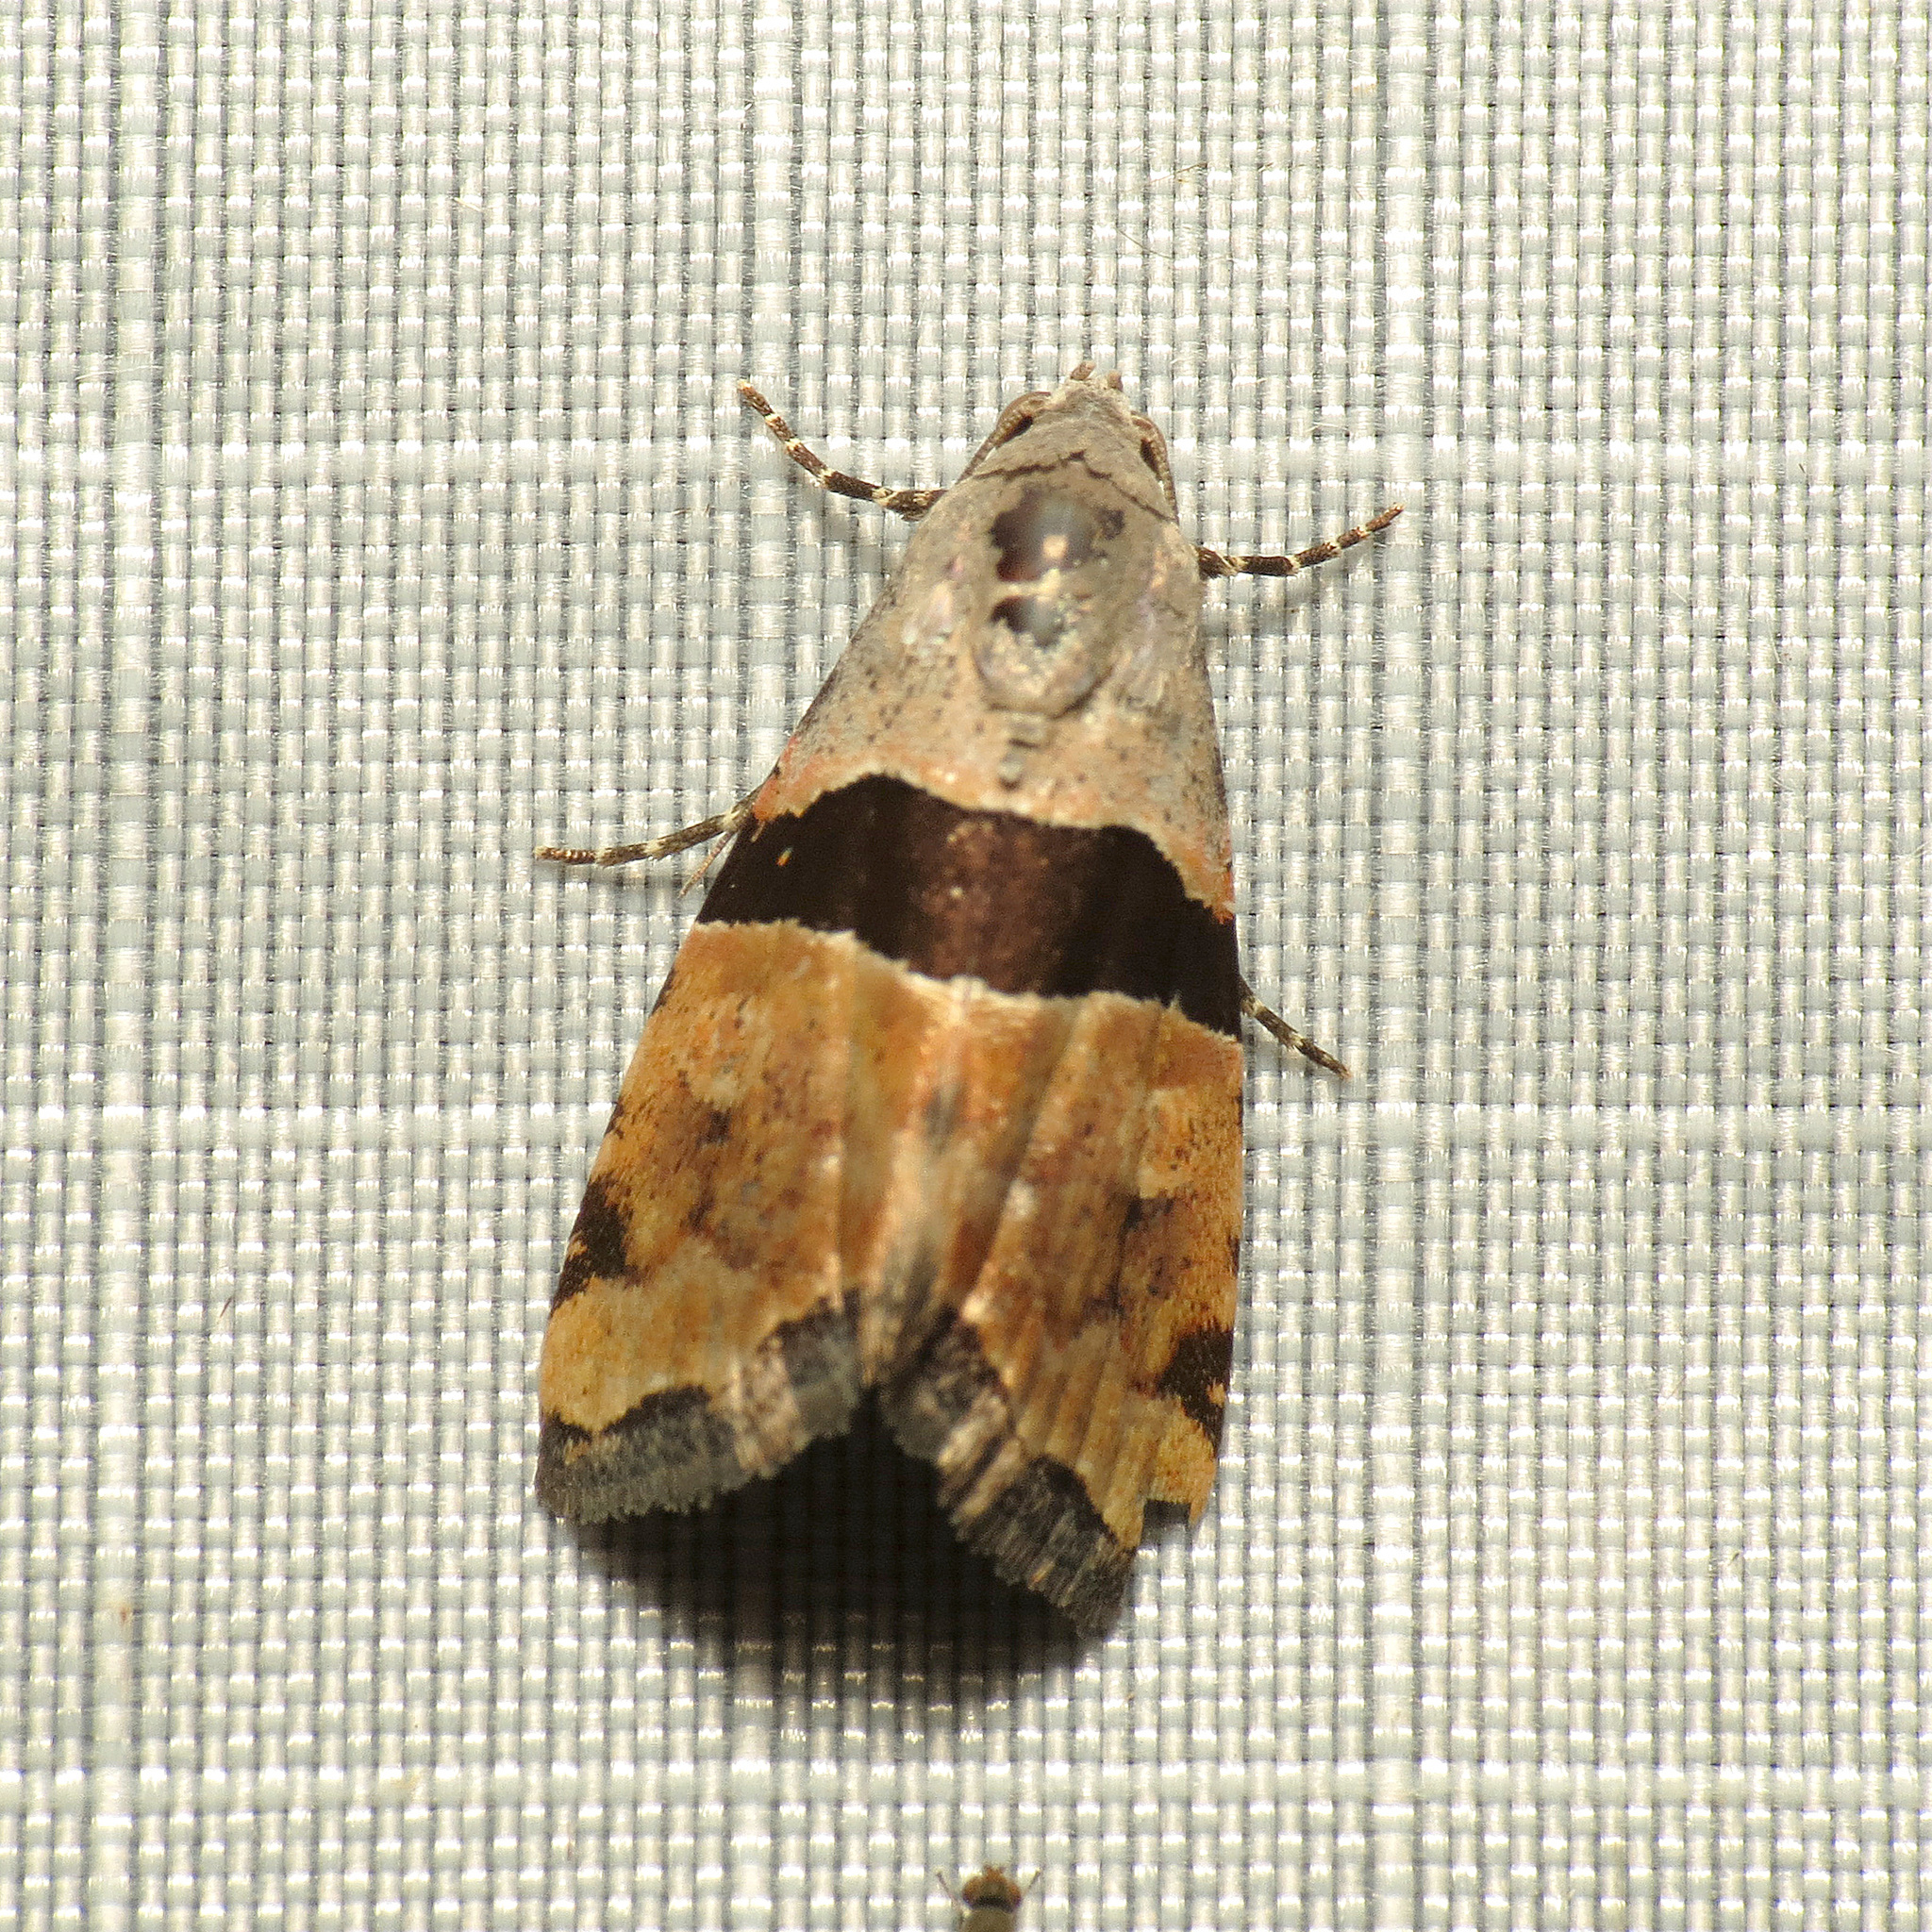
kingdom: Animalia
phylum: Arthropoda
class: Insecta
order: Lepidoptera
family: Noctuidae
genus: Cobubatha
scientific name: Cobubatha lixiva
